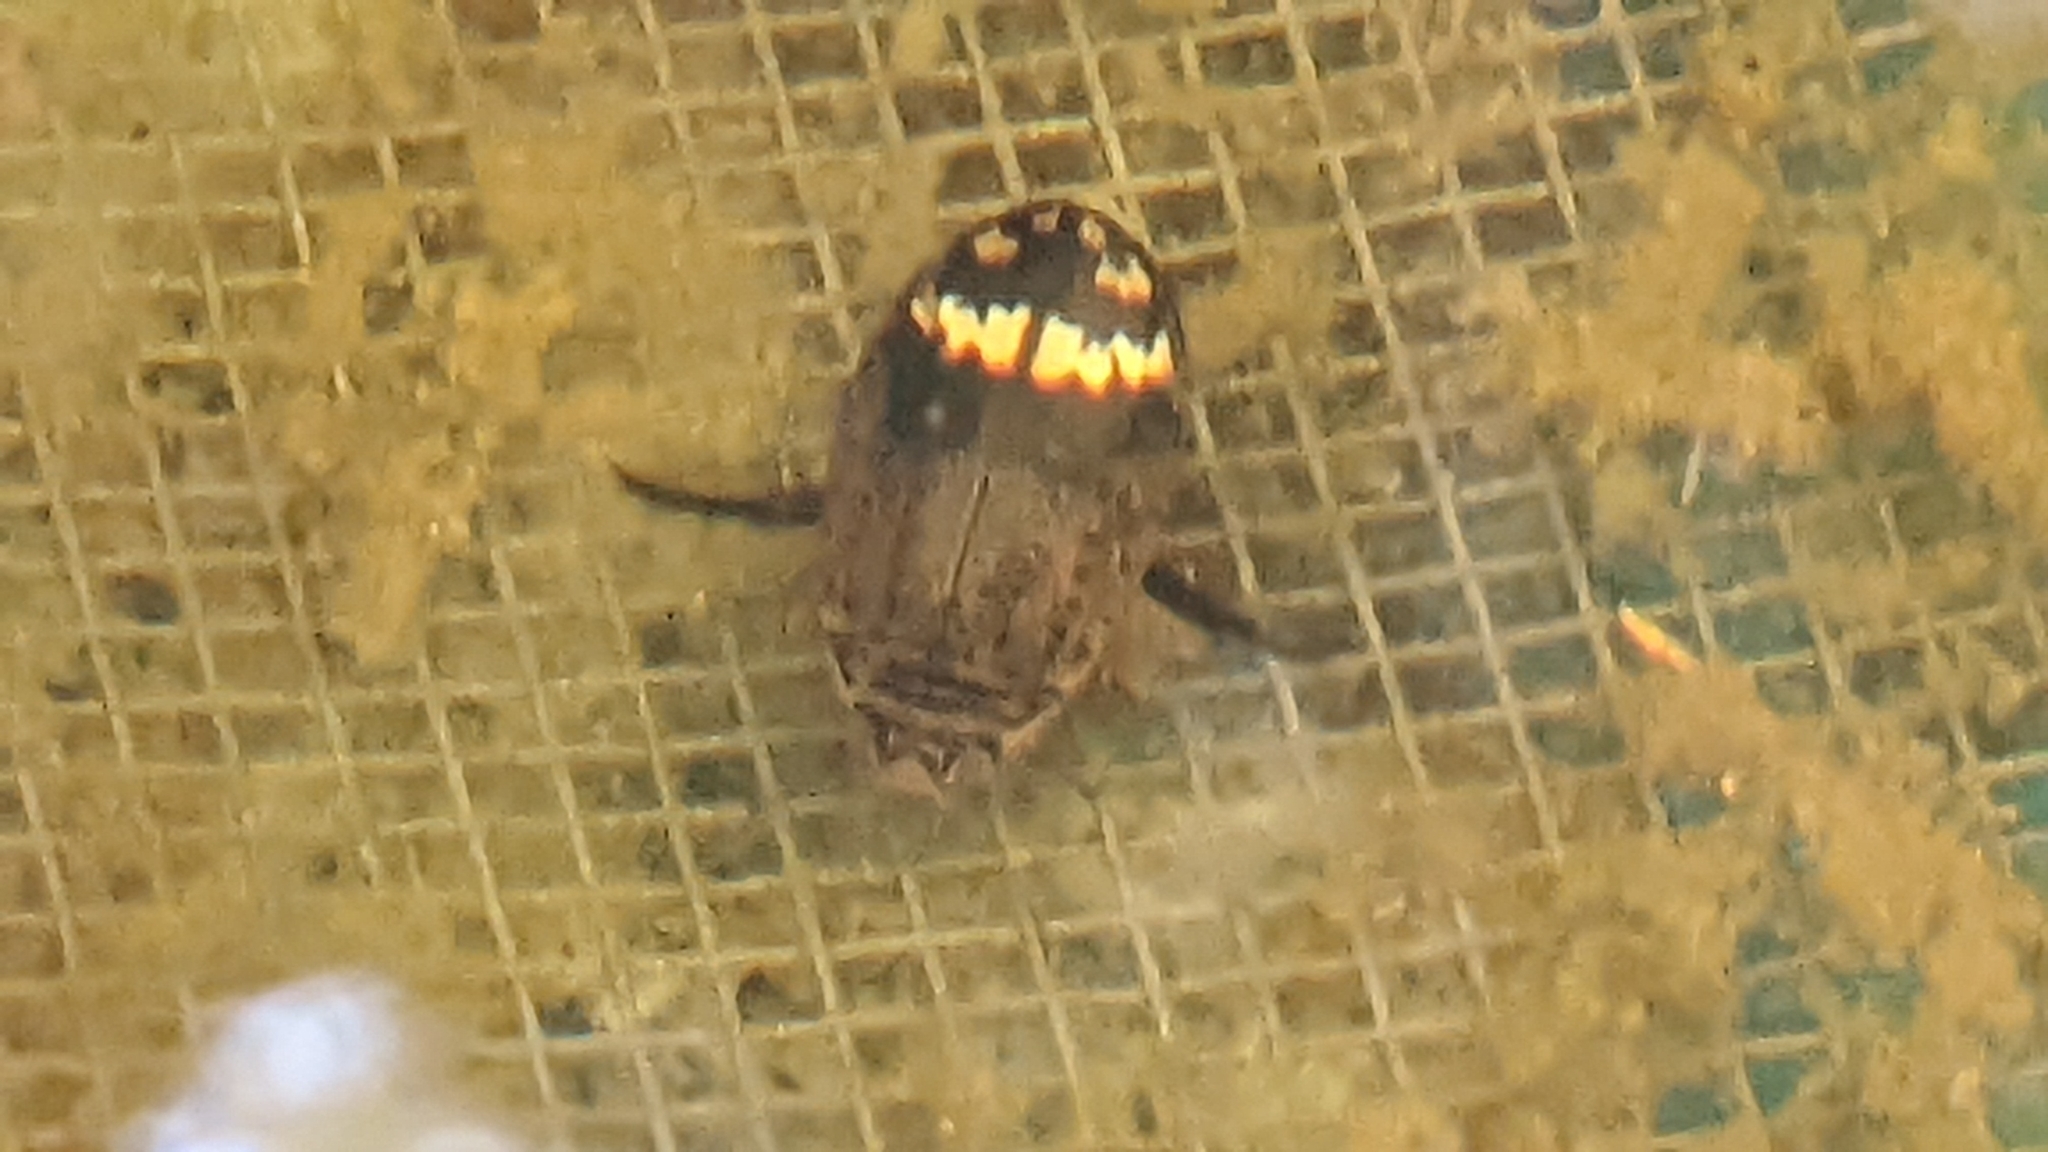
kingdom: Animalia
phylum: Arthropoda
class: Insecta
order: Coleoptera
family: Dytiscidae
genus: Acilius
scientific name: Acilius mediatus
